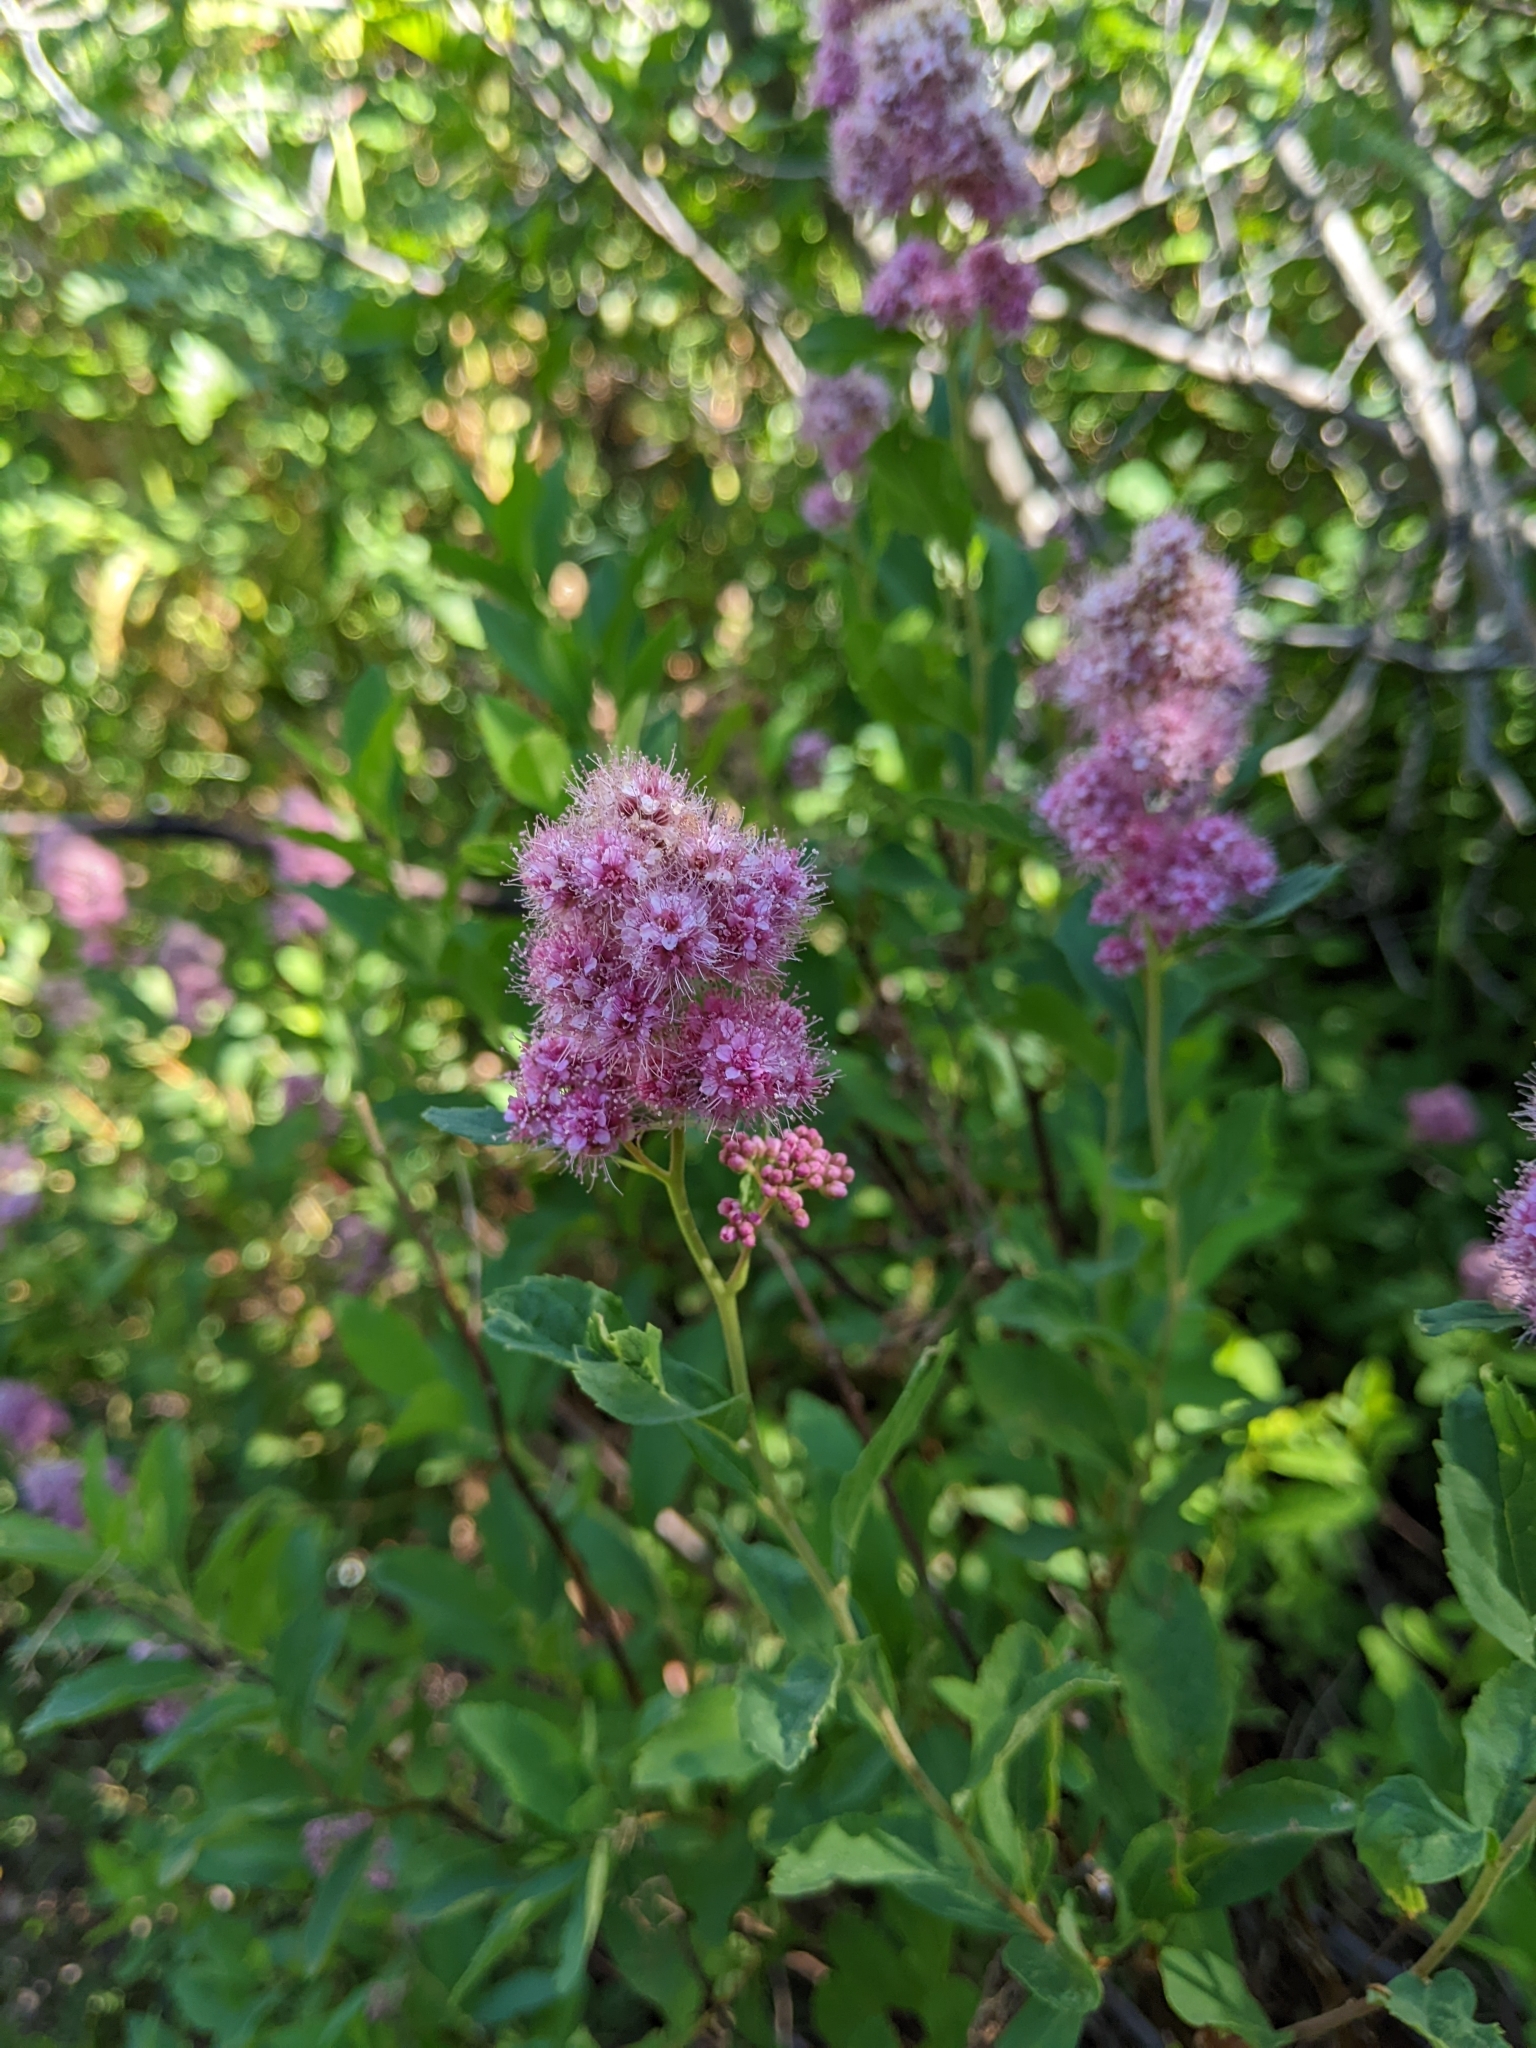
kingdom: Plantae
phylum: Tracheophyta
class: Magnoliopsida
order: Rosales
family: Rosaceae
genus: Spiraea
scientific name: Spiraea douglasii
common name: Steeplebush
